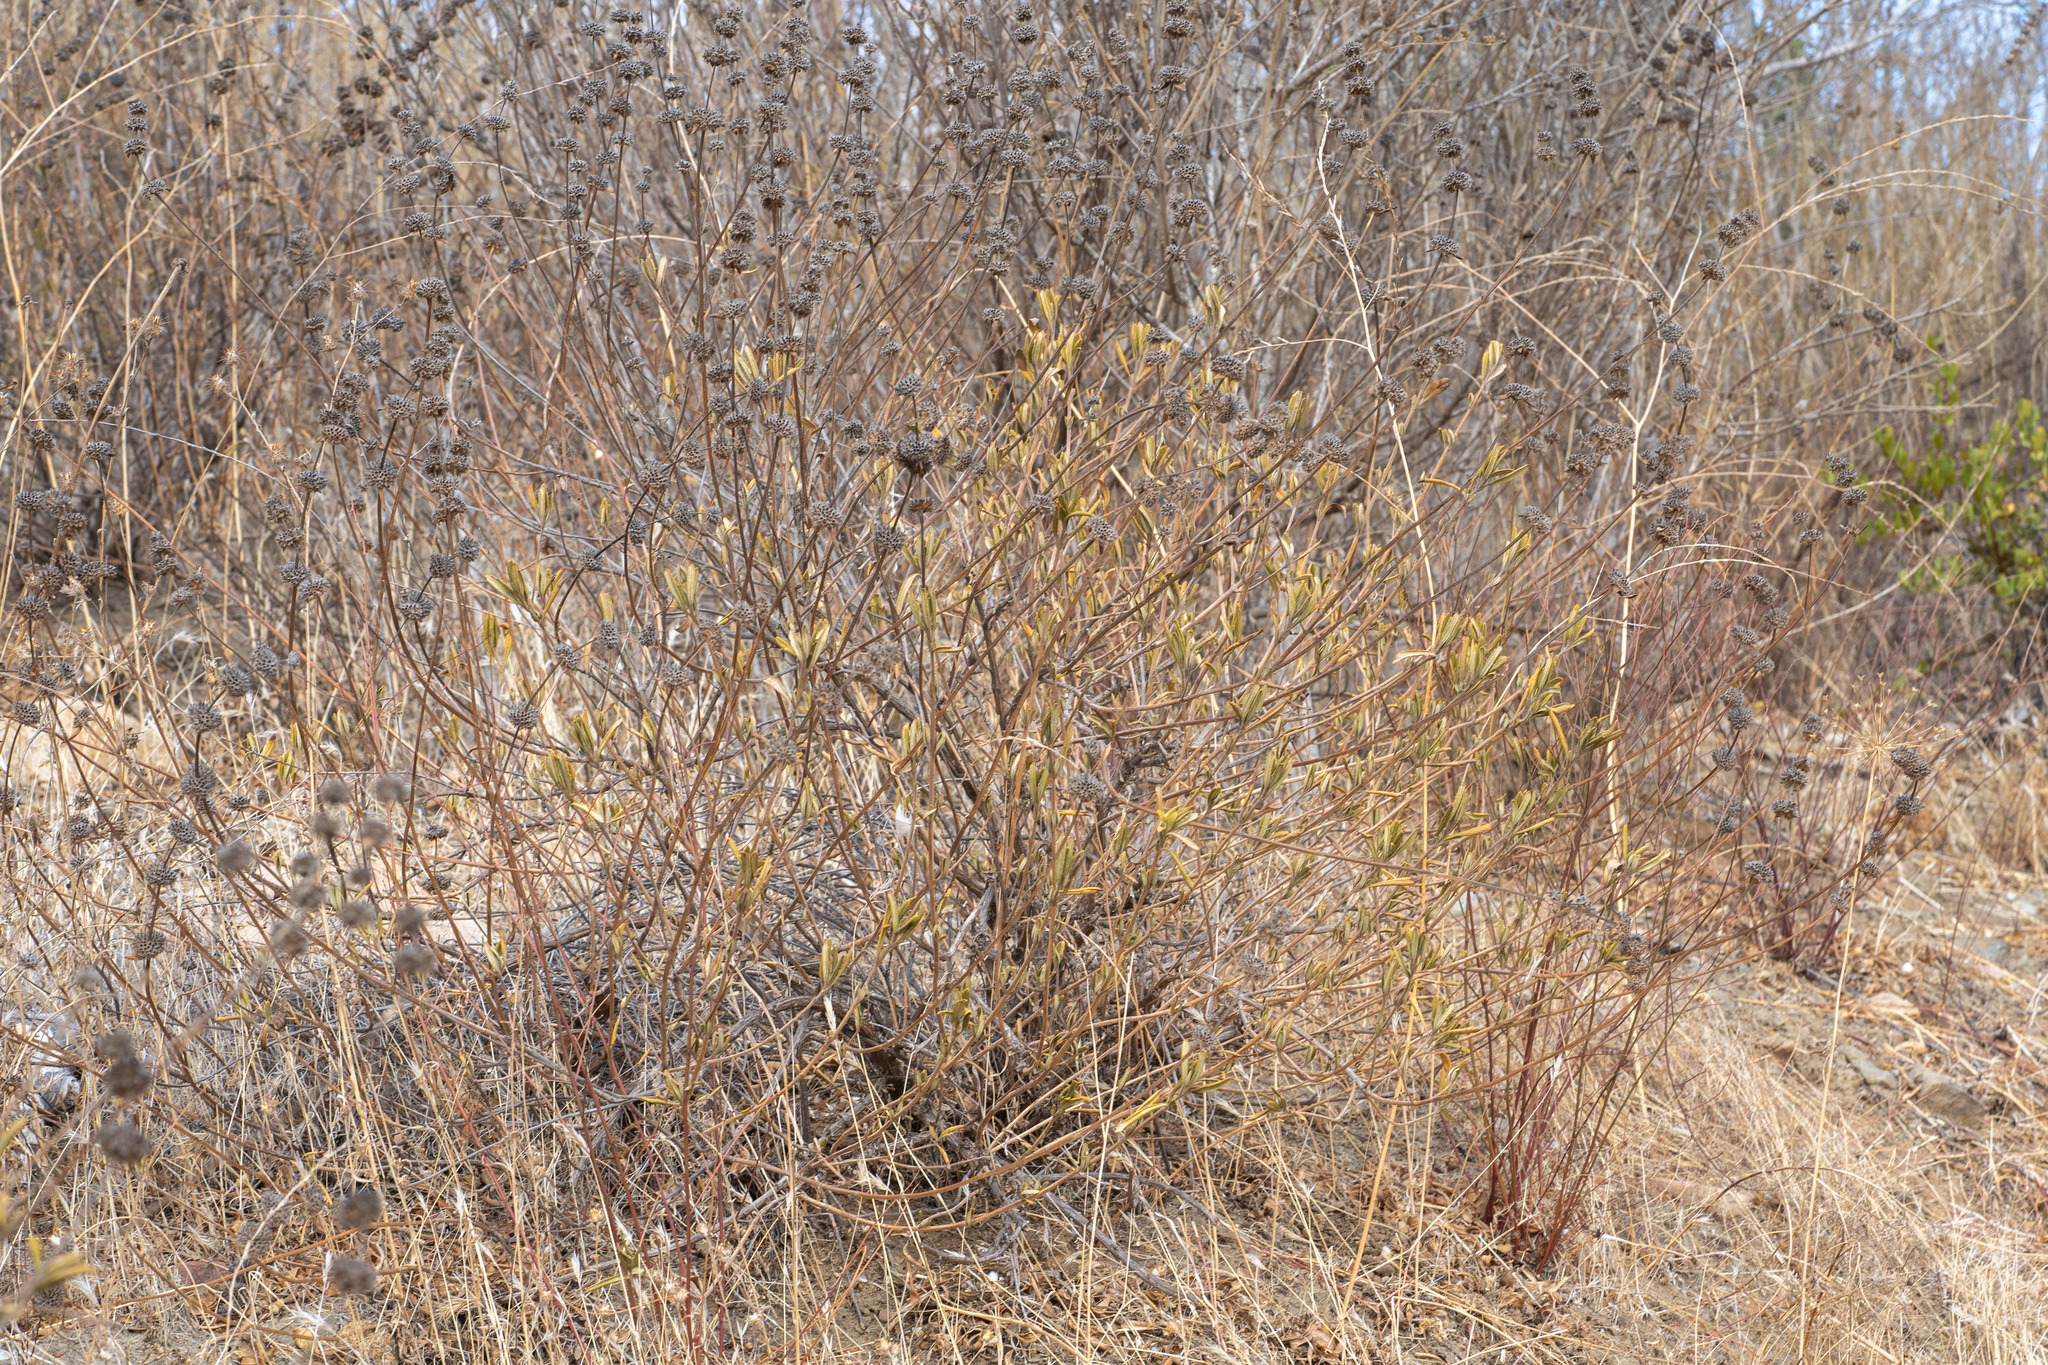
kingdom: Plantae
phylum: Tracheophyta
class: Magnoliopsida
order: Lamiales
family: Lamiaceae
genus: Salvia
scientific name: Salvia mellifera
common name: Black sage
